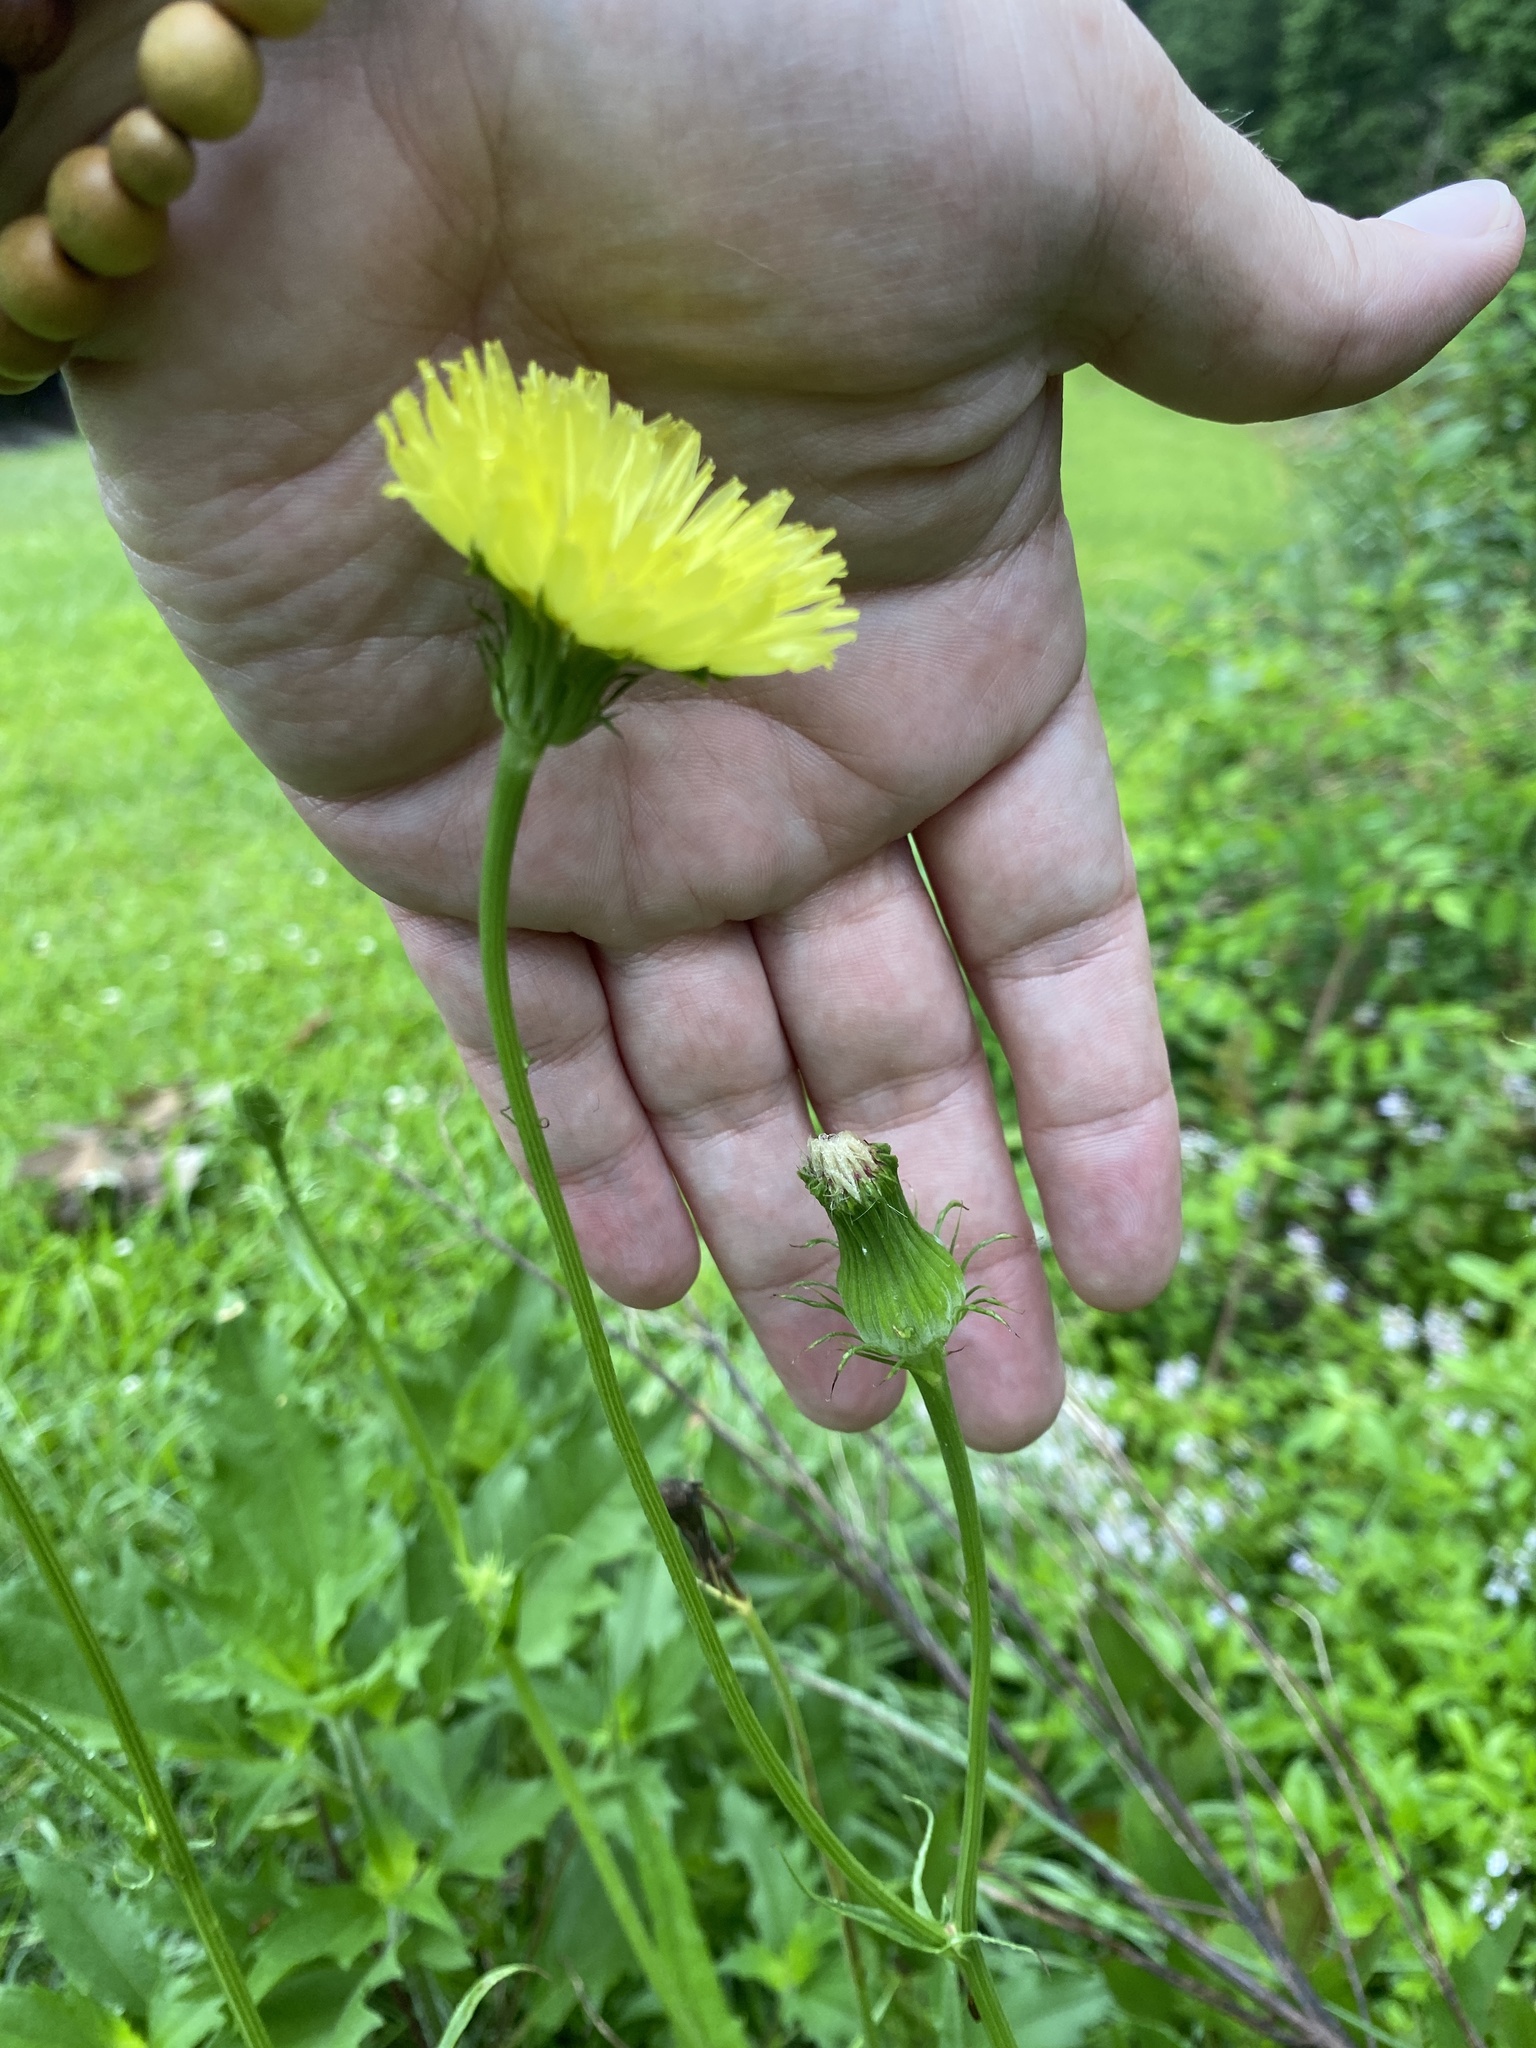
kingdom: Plantae
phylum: Tracheophyta
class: Magnoliopsida
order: Asterales
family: Asteraceae
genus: Pyrrhopappus
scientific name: Pyrrhopappus carolinianus
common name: Carolina desert-chicory
